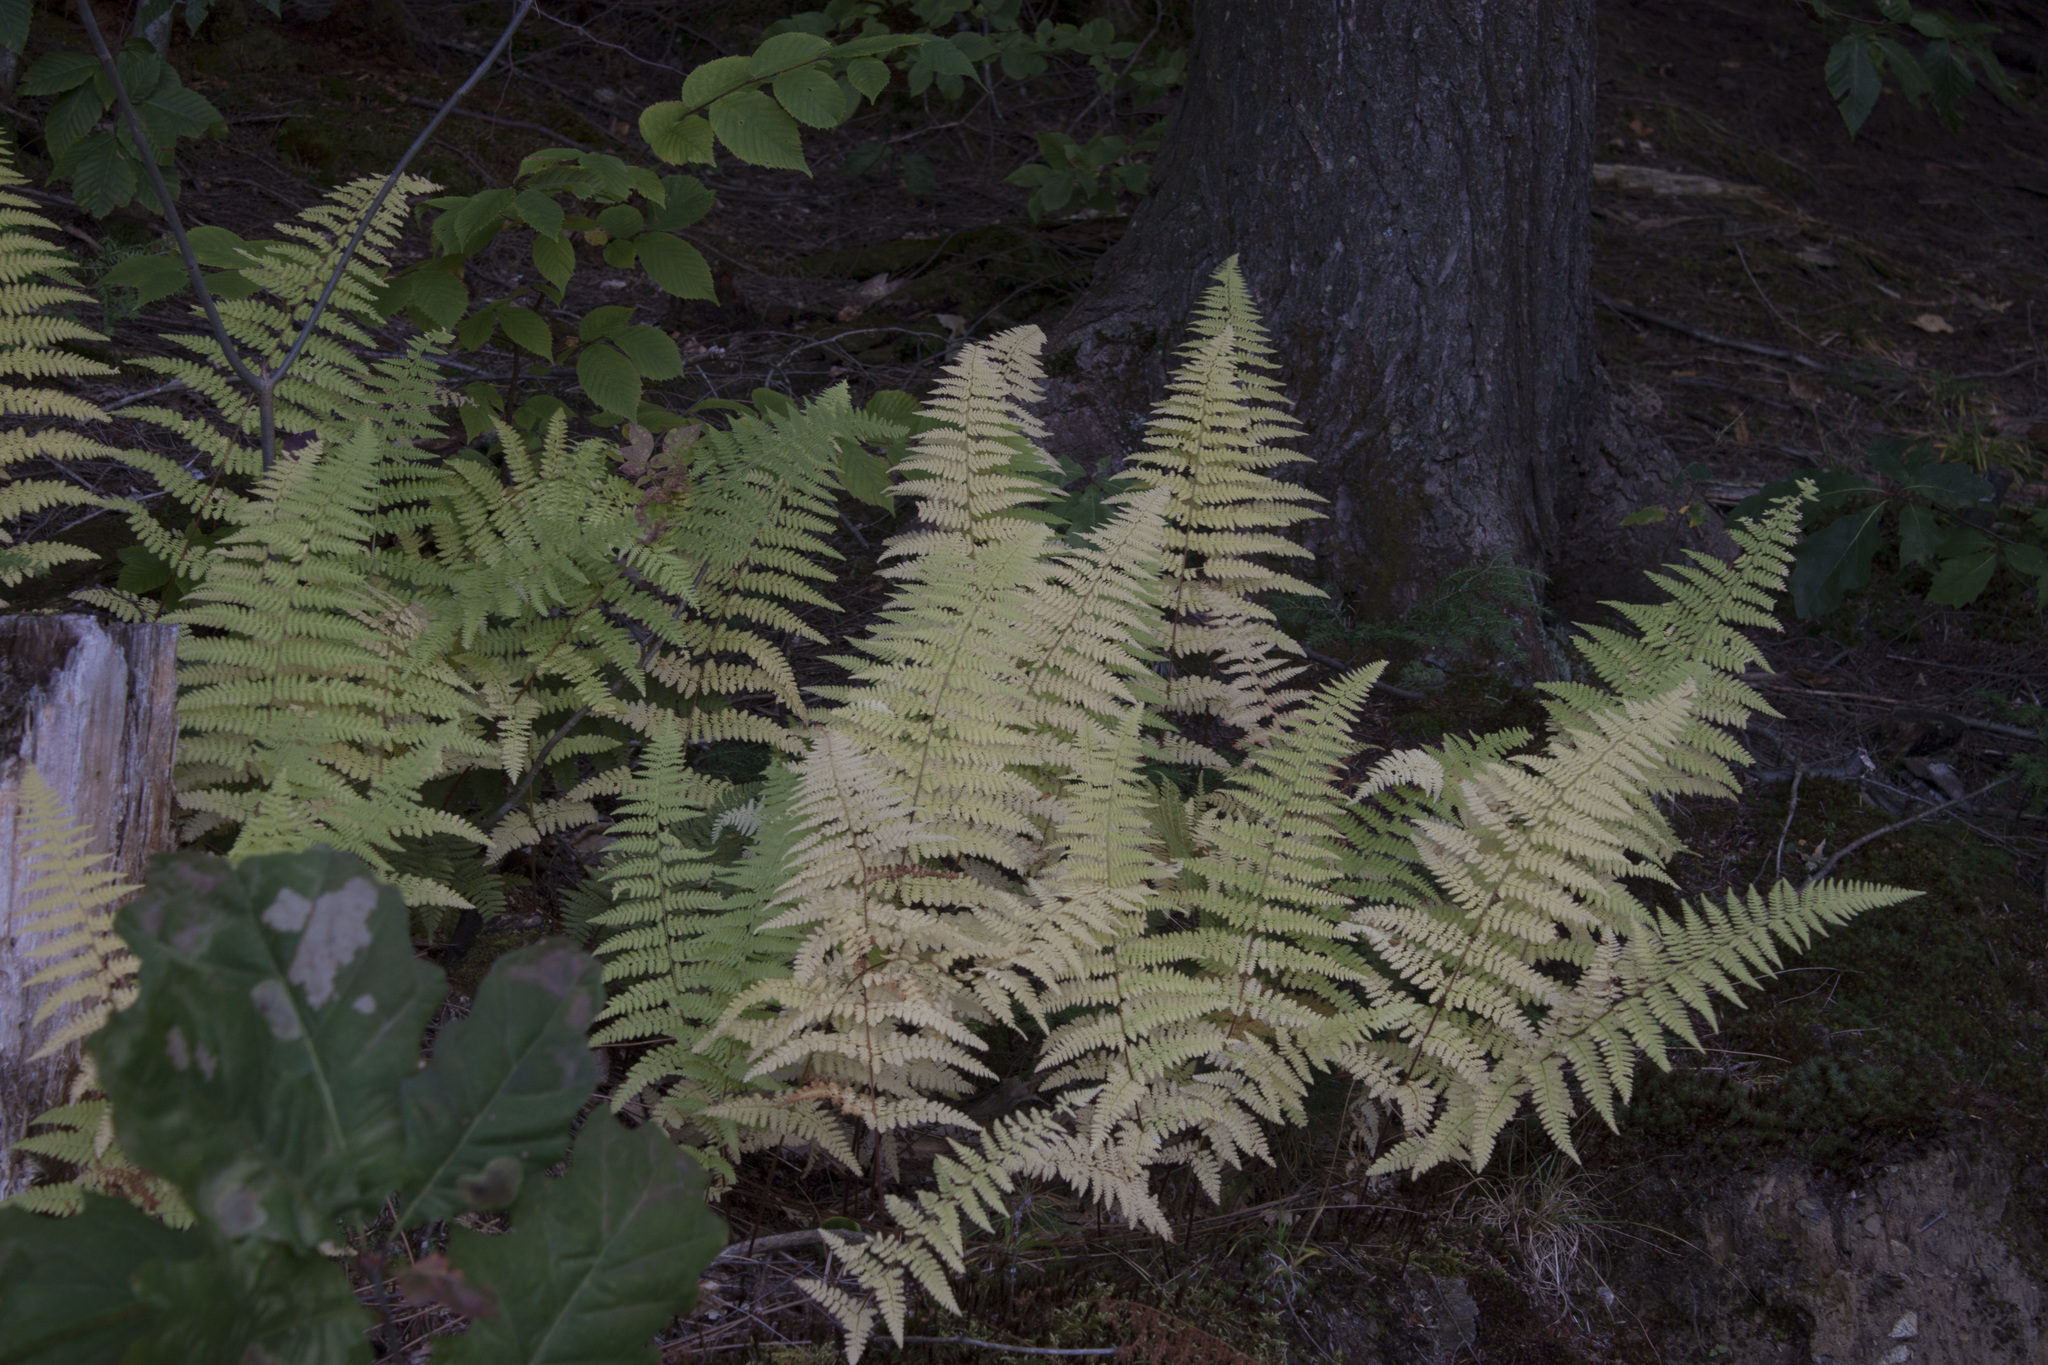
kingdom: Plantae
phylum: Tracheophyta
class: Polypodiopsida
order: Polypodiales
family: Dennstaedtiaceae
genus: Sitobolium
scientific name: Sitobolium punctilobum
